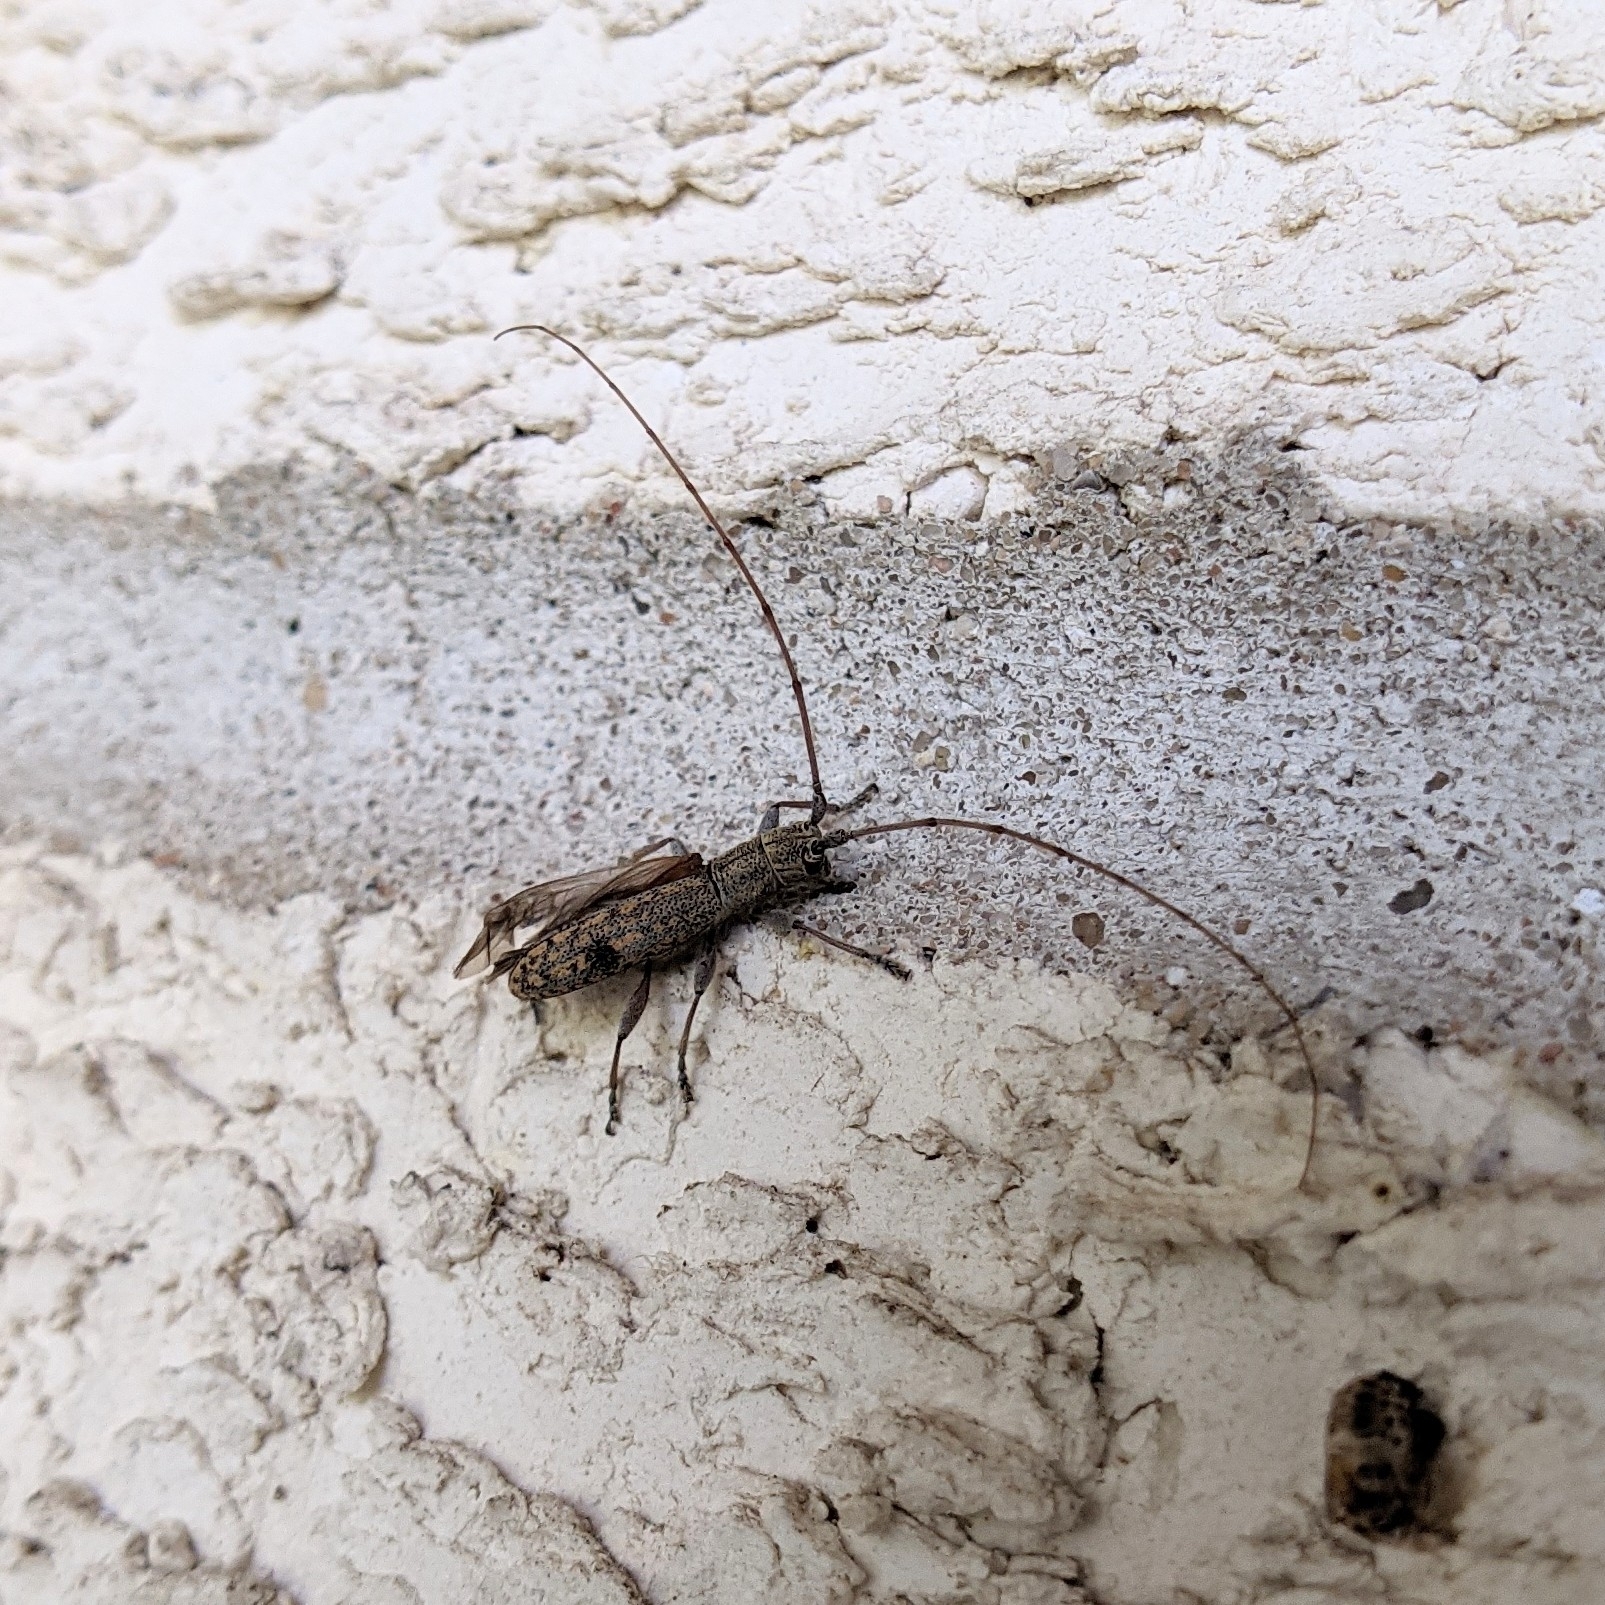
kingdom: Animalia
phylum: Arthropoda
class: Insecta
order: Coleoptera
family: Cerambycidae
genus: Dorcaschema
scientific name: Dorcaschema alternatum
